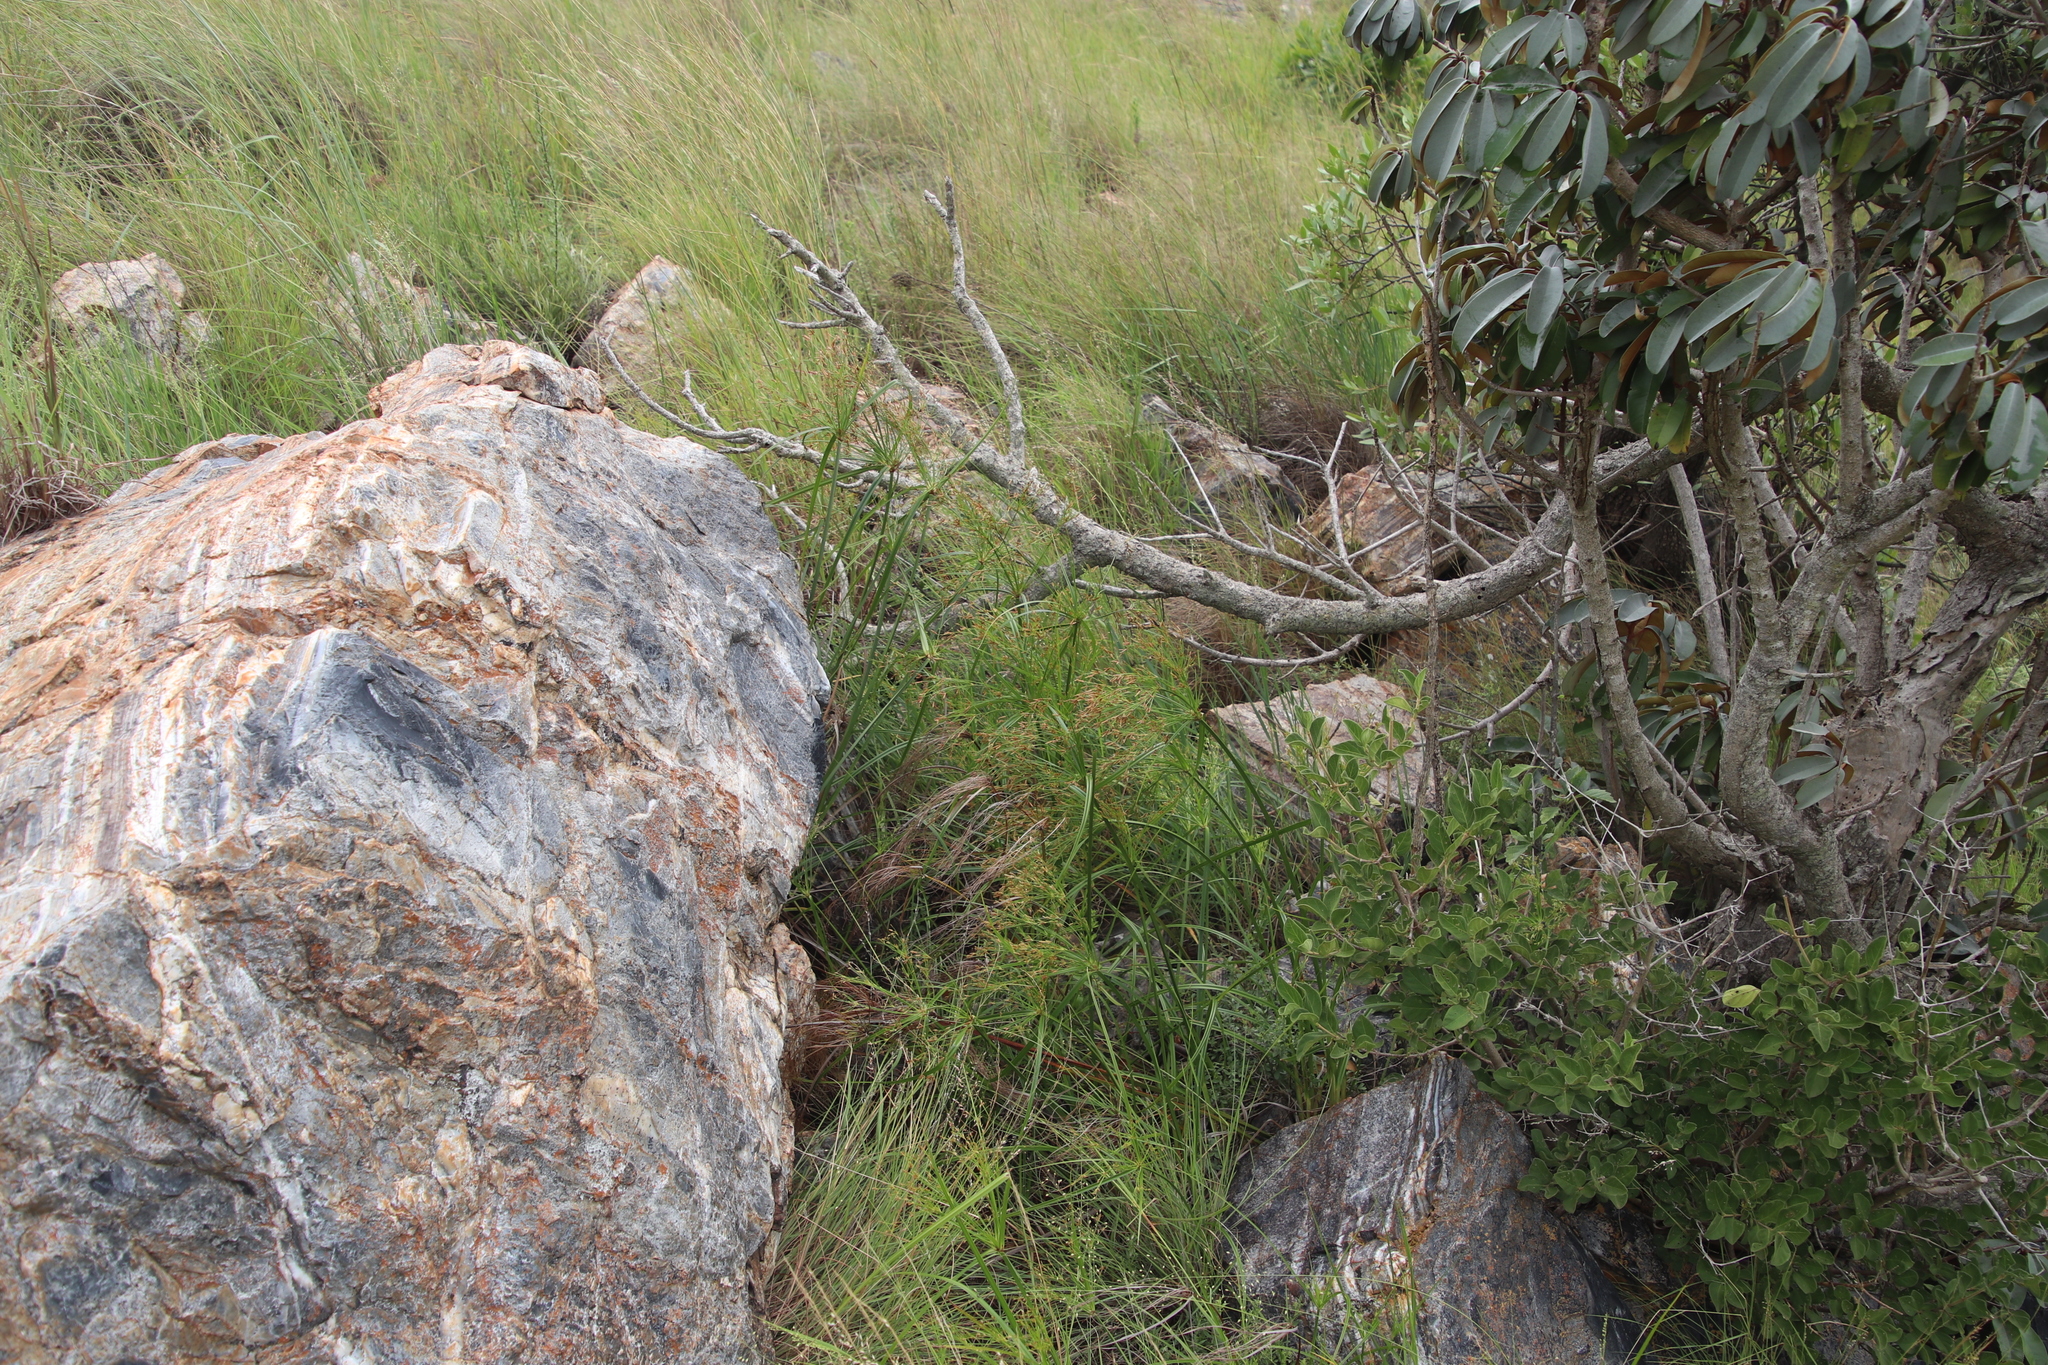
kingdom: Plantae
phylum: Tracheophyta
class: Liliopsida
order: Poales
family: Cyperaceae
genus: Cyperus
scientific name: Cyperus leptocladus
